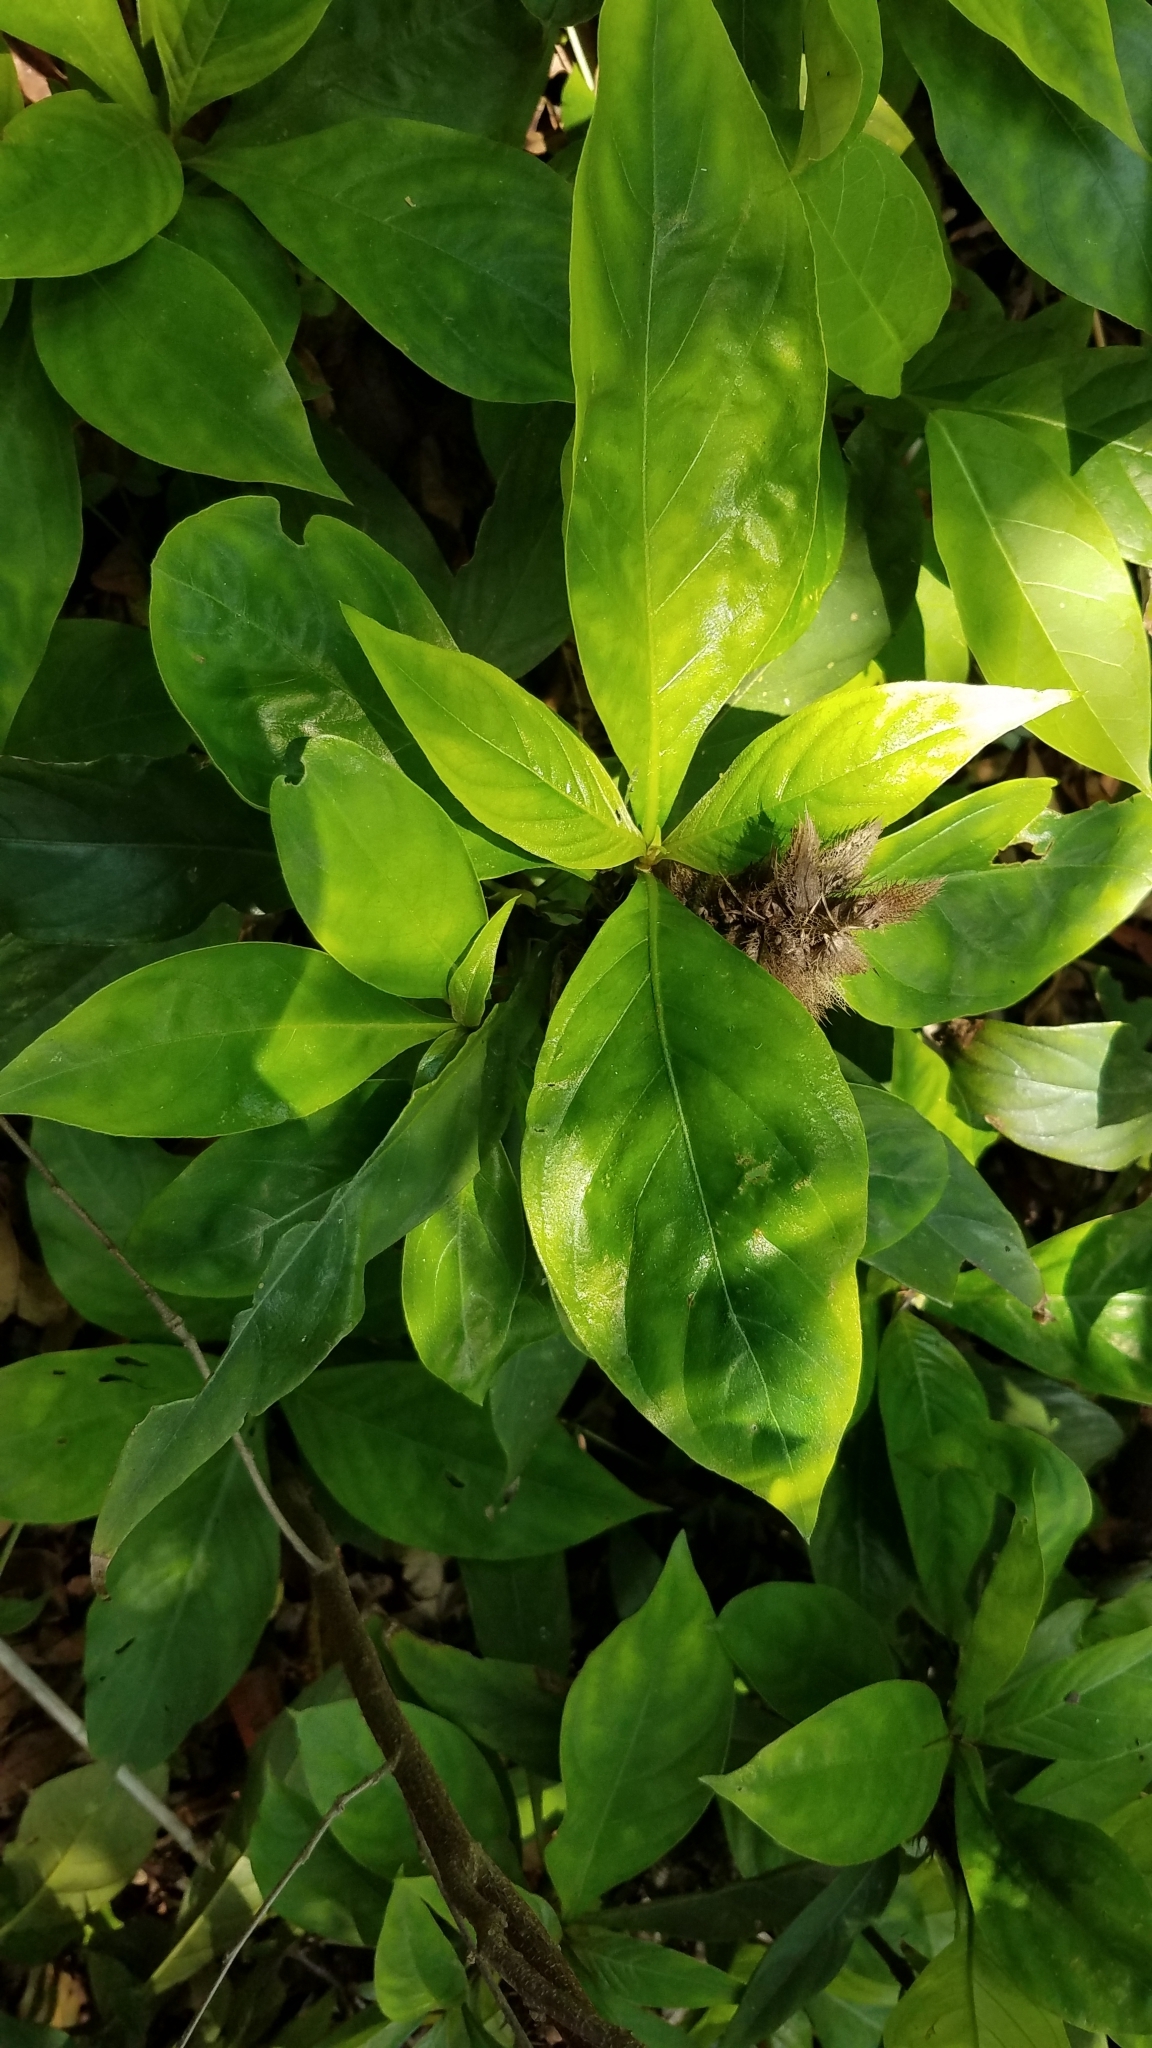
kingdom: Plantae
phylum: Tracheophyta
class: Magnoliopsida
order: Lamiales
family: Acanthaceae
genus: Barleria
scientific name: Barleria oenotheroides
